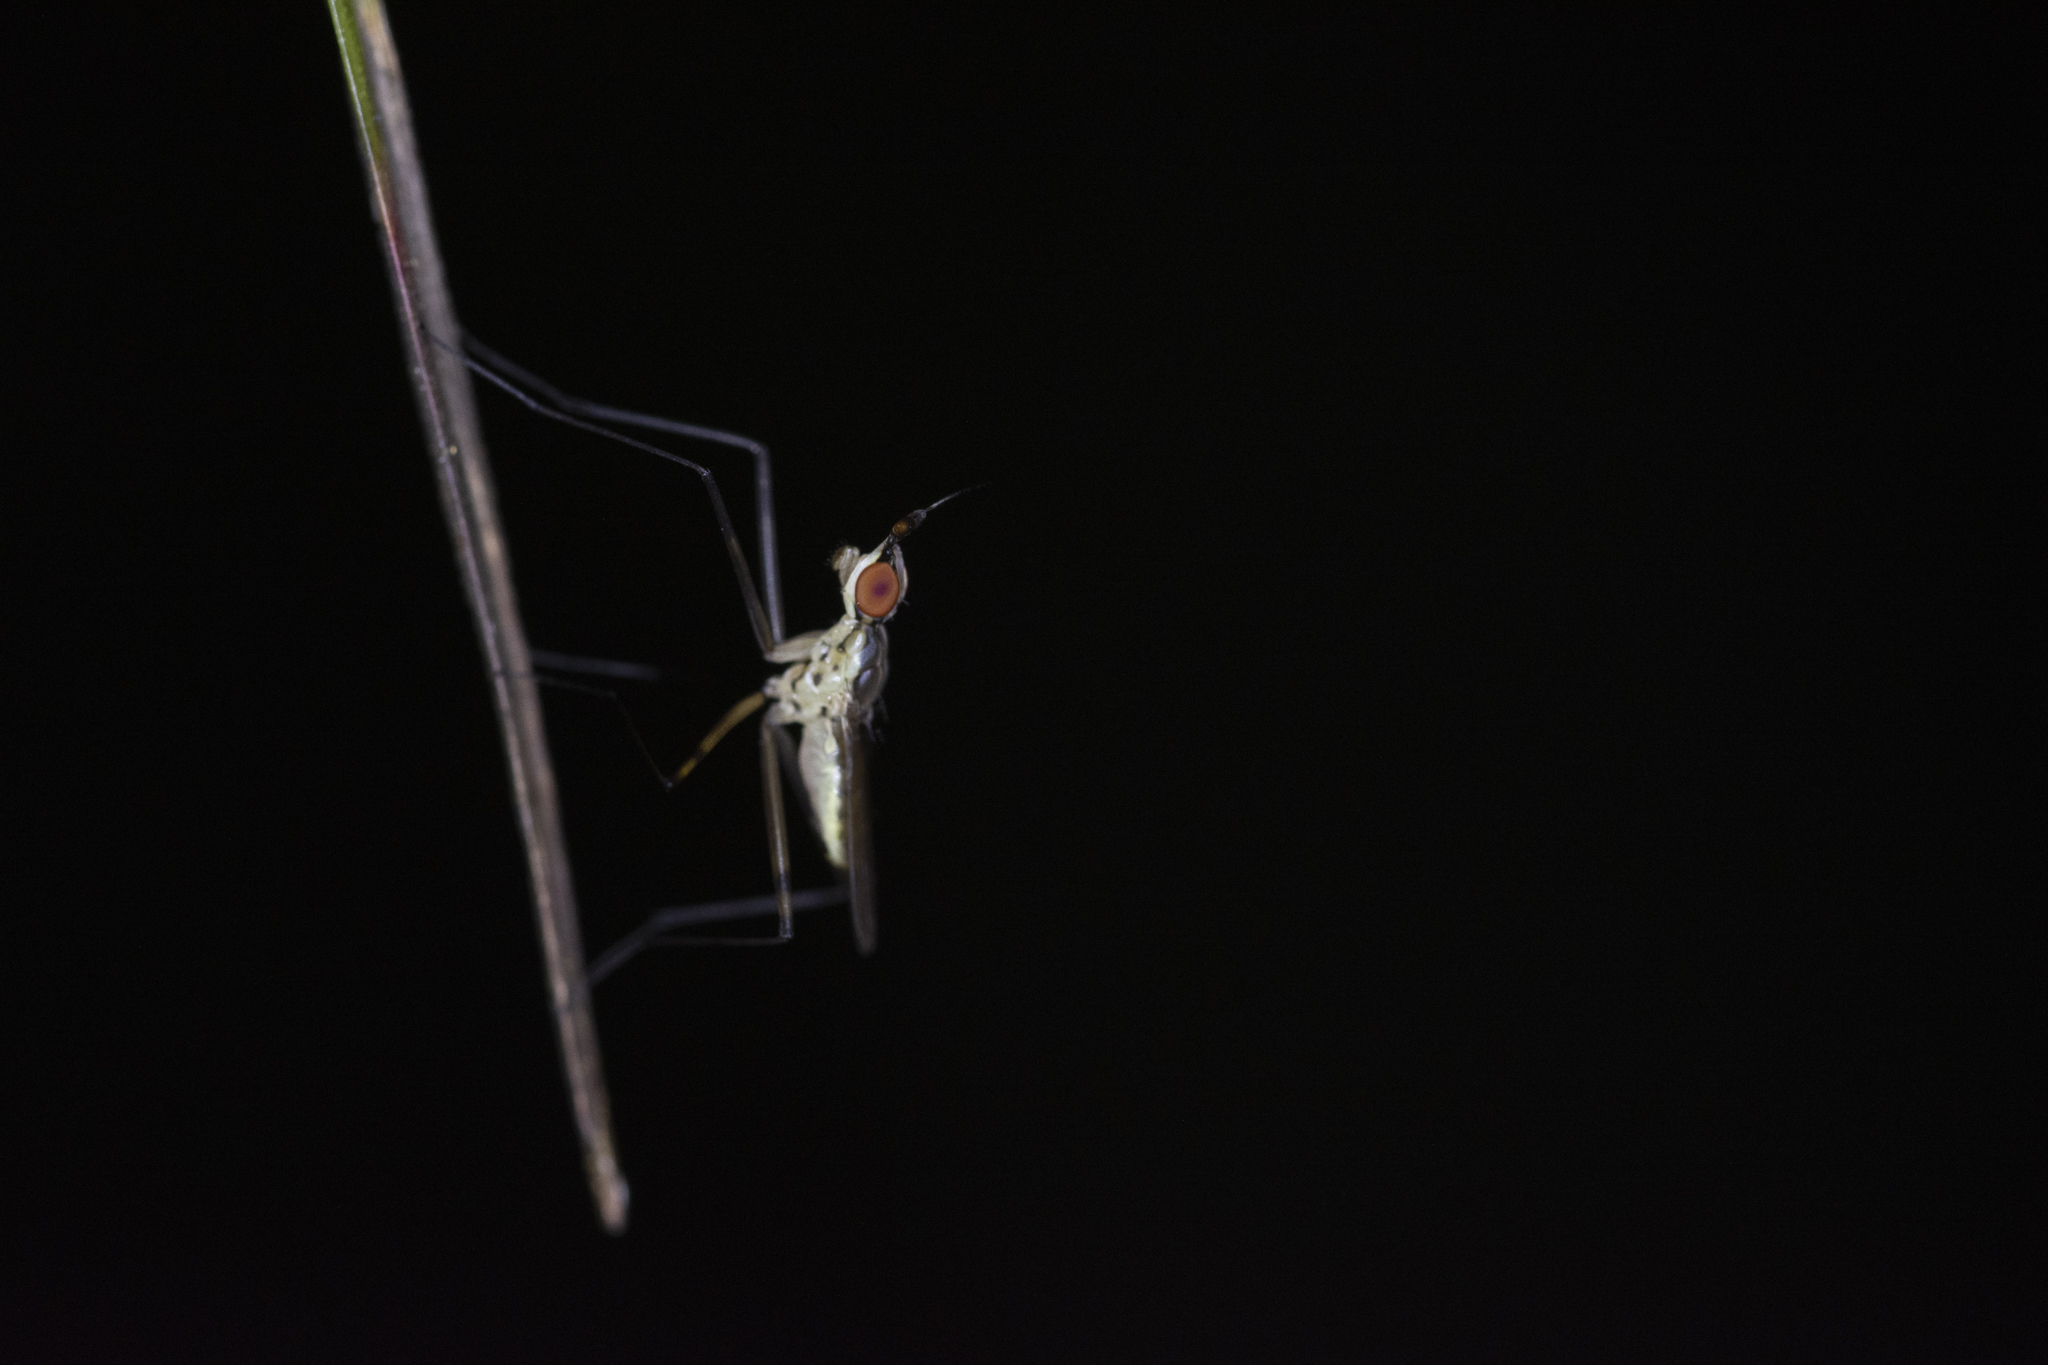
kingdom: Animalia
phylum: Arthropoda
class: Insecta
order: Diptera
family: Neriidae
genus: Telostylinus
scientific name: Telostylinus gressitti
